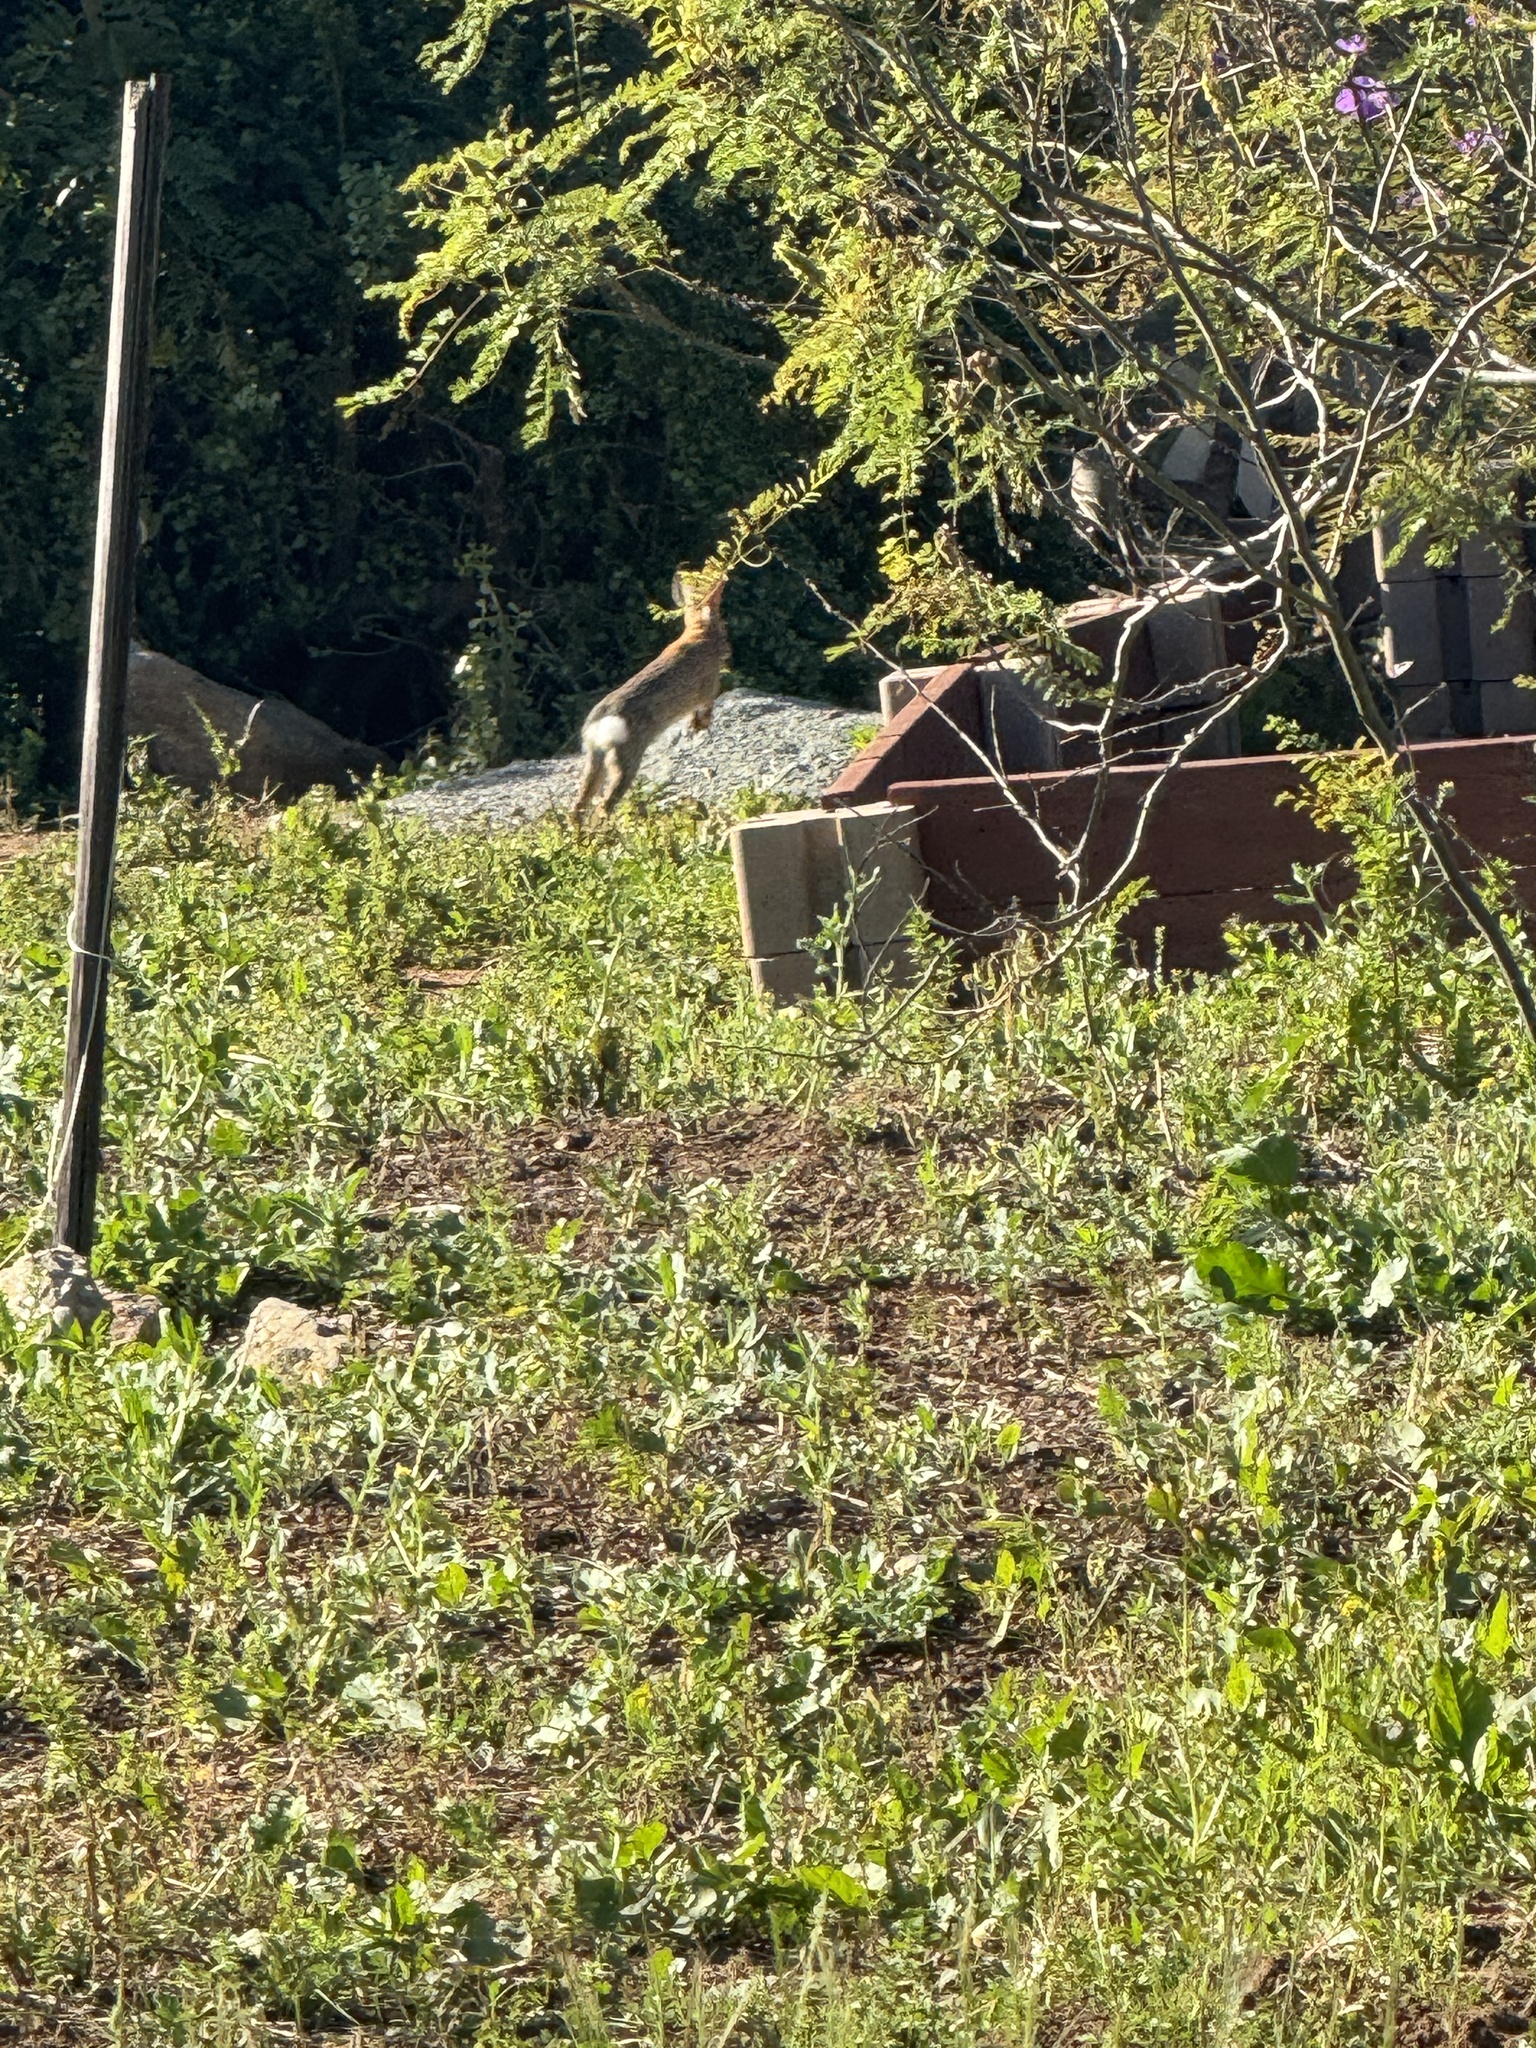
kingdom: Animalia
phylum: Chordata
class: Mammalia
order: Lagomorpha
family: Leporidae
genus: Sylvilagus
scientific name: Sylvilagus audubonii
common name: Desert cottontail
